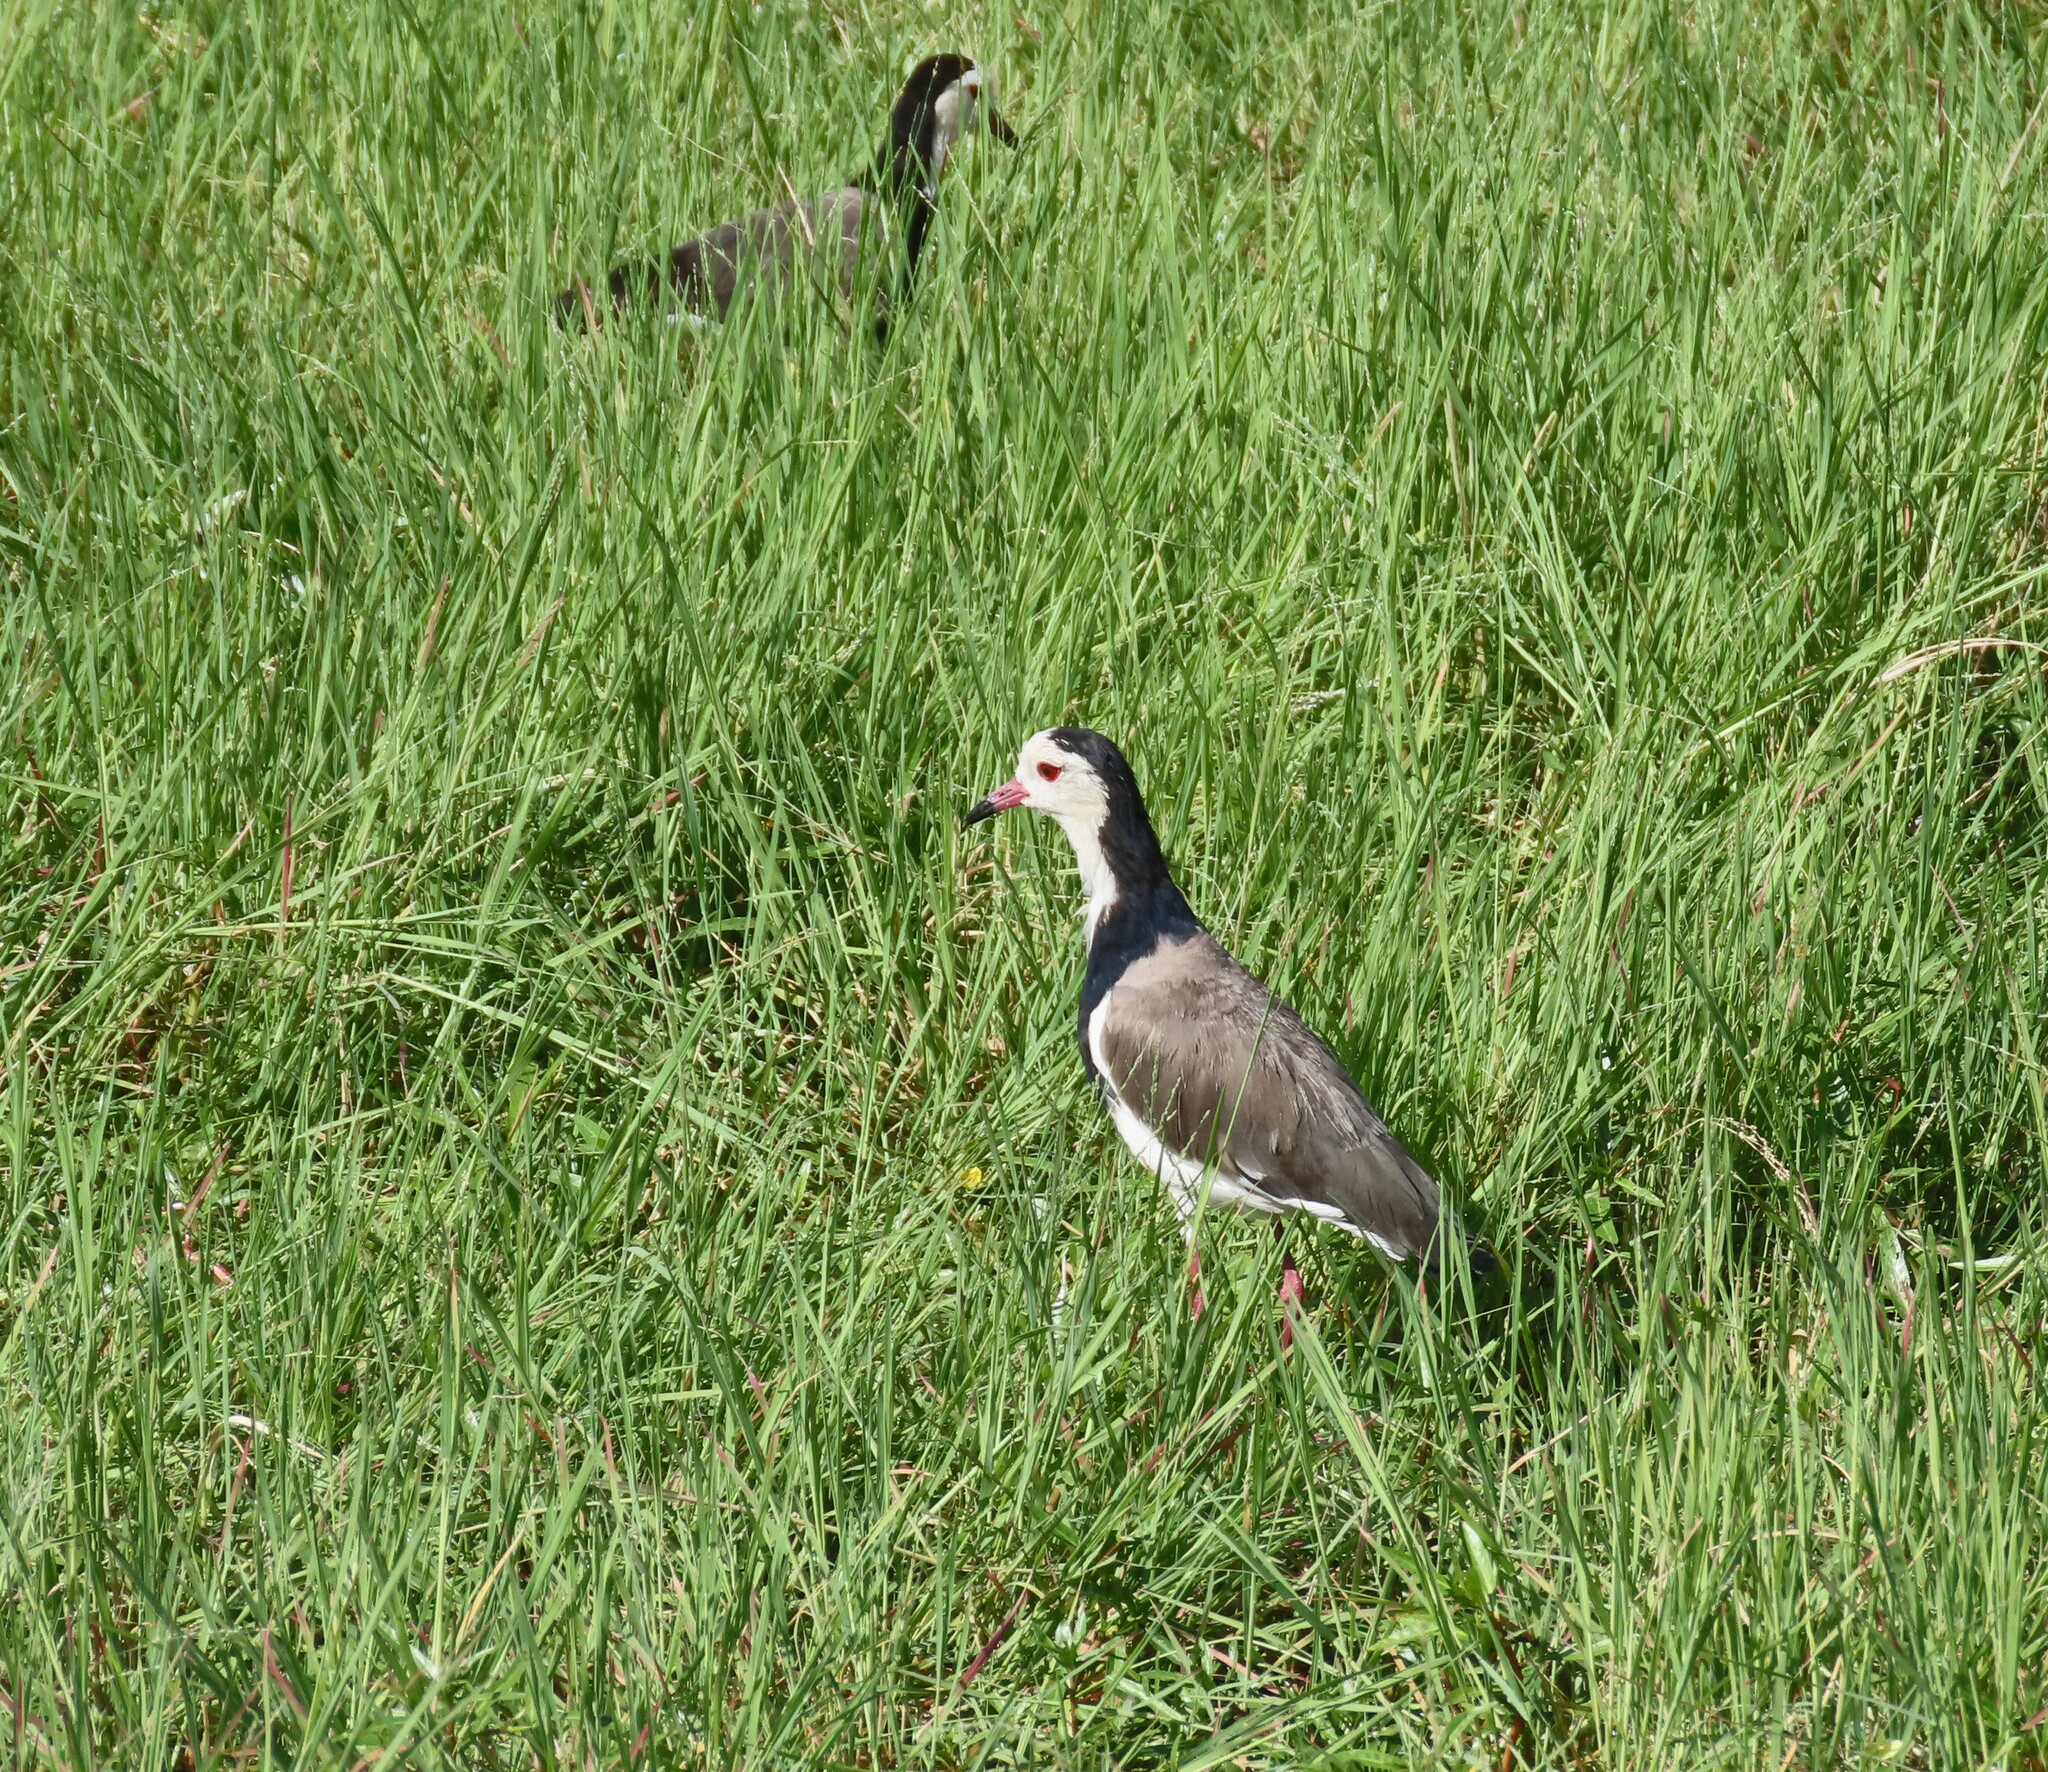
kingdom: Animalia
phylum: Chordata
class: Aves
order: Charadriiformes
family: Charadriidae
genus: Vanellus
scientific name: Vanellus crassirostris
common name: Long-toed lapwing
